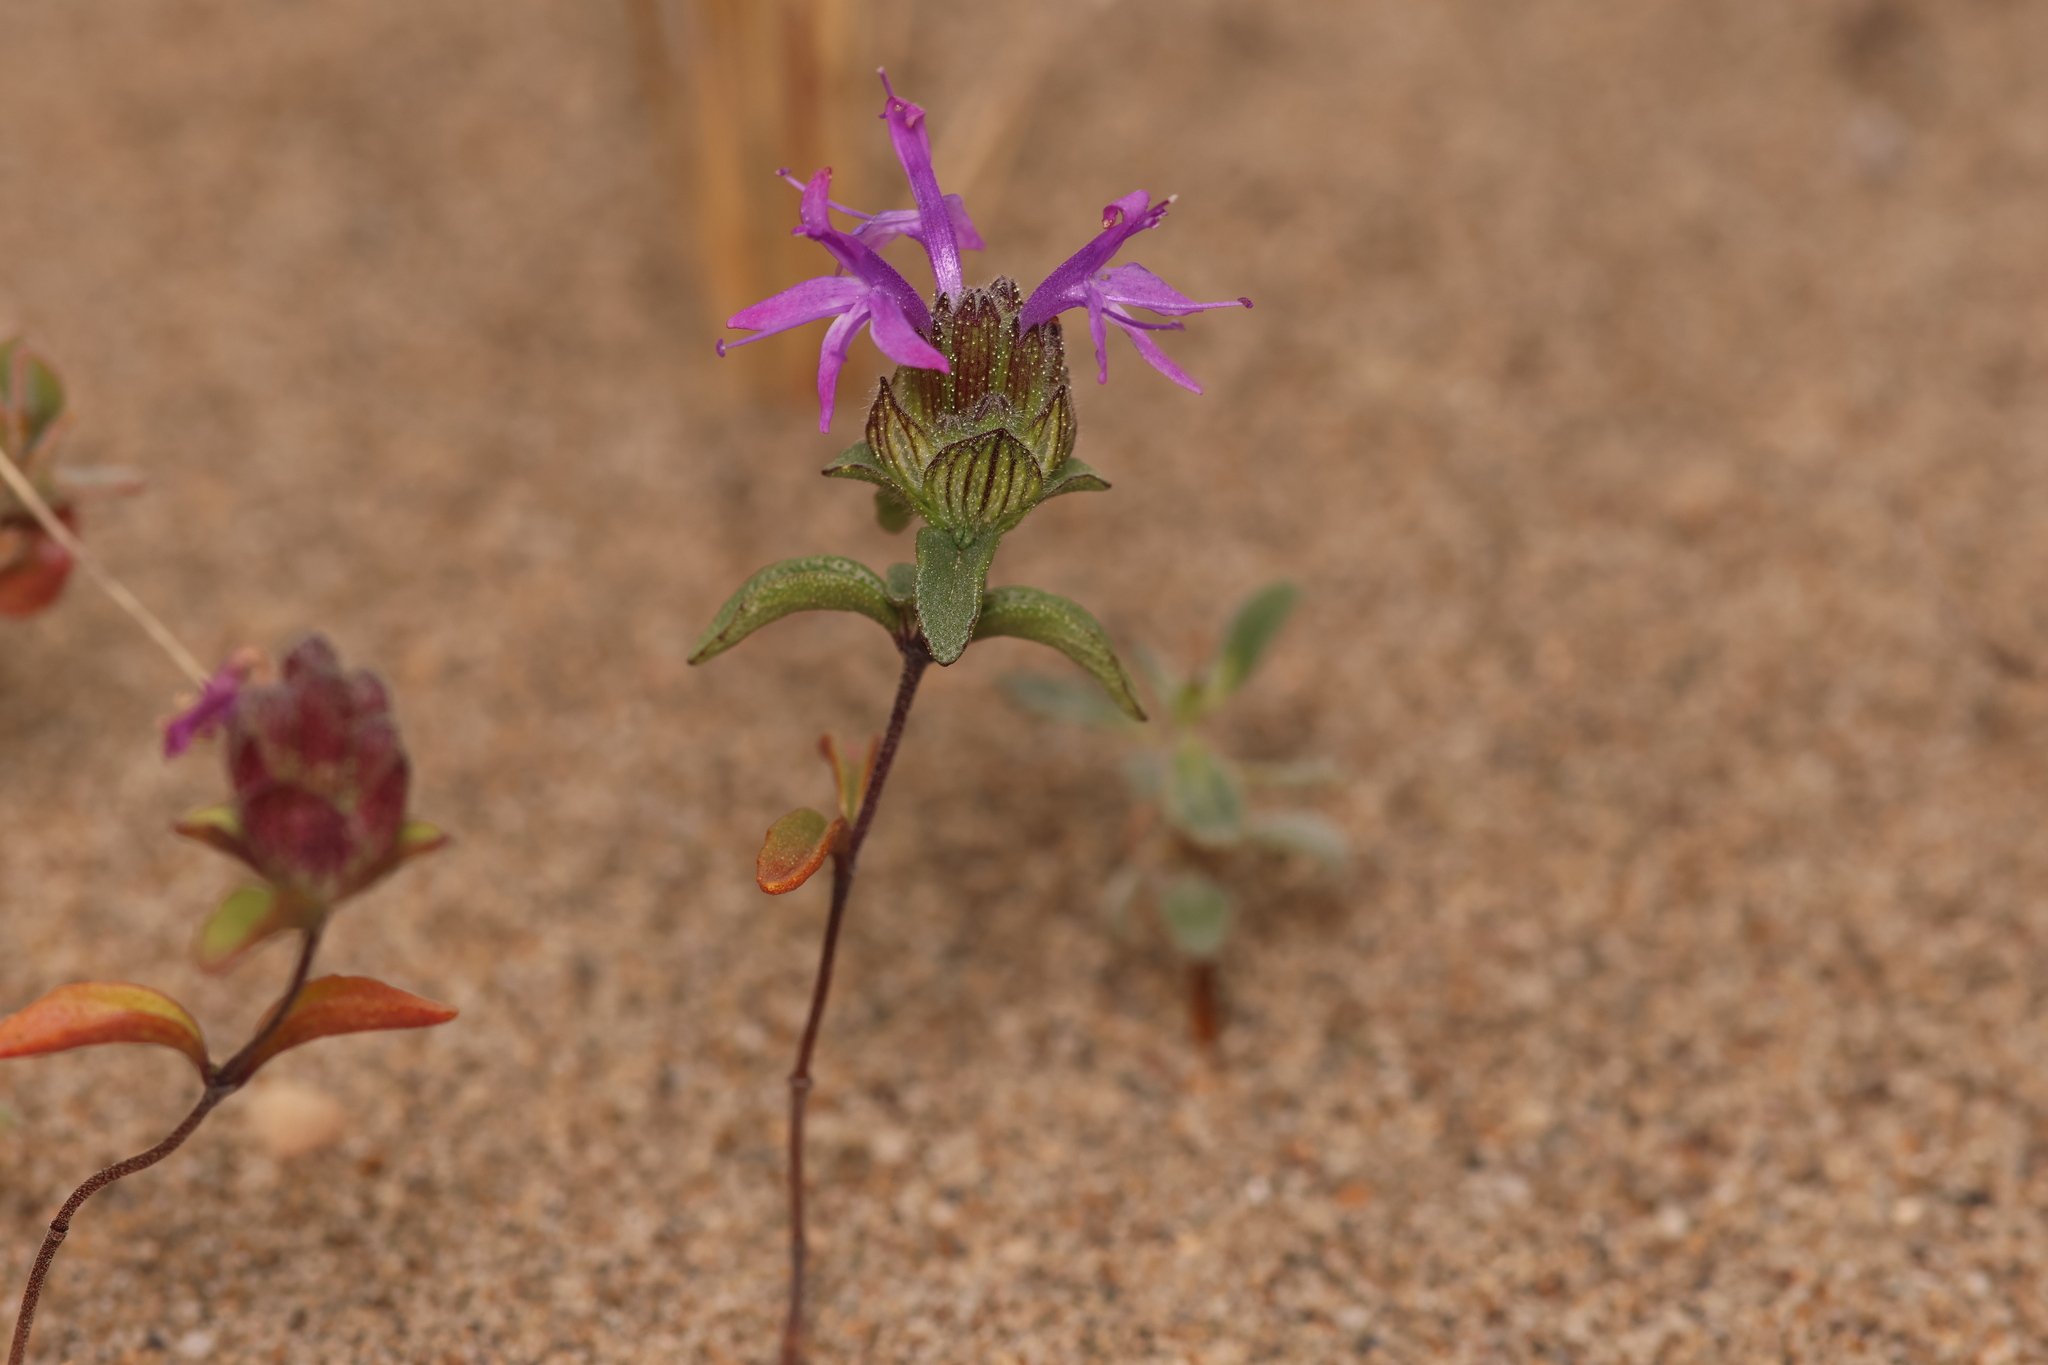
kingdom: Plantae
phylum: Tracheophyta
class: Magnoliopsida
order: Lamiales
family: Lamiaceae
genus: Monardella
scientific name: Monardella sinuata
